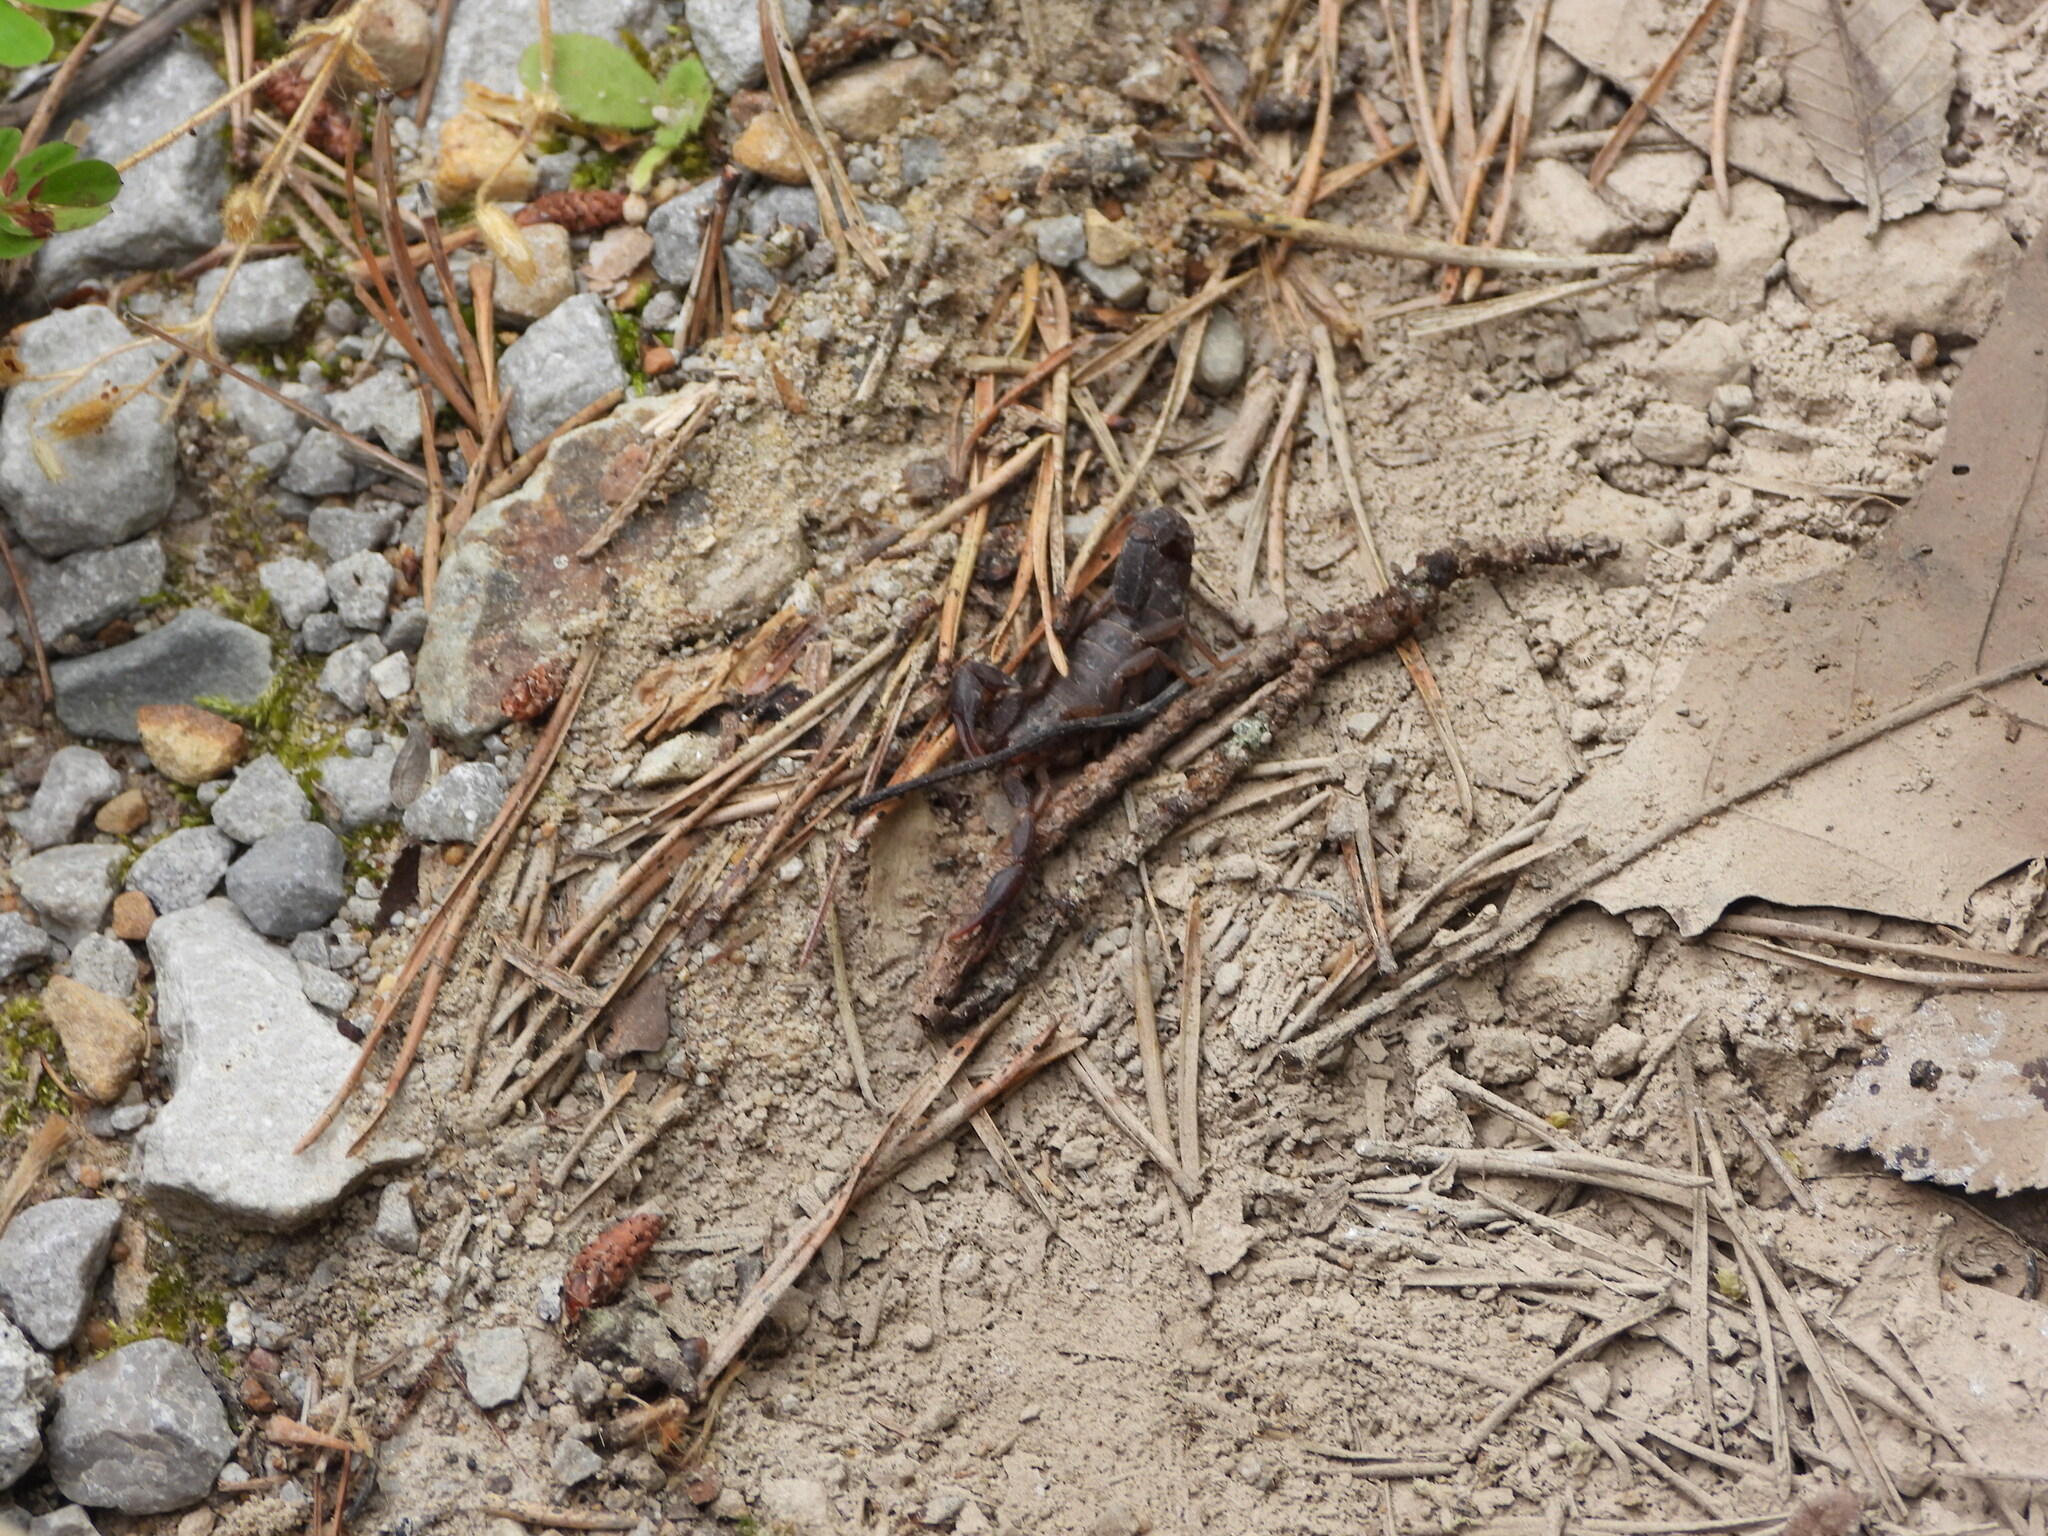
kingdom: Animalia
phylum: Arthropoda
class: Arachnida
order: Scorpiones
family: Vaejovidae
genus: Vaejovis
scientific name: Vaejovis carolinianus
